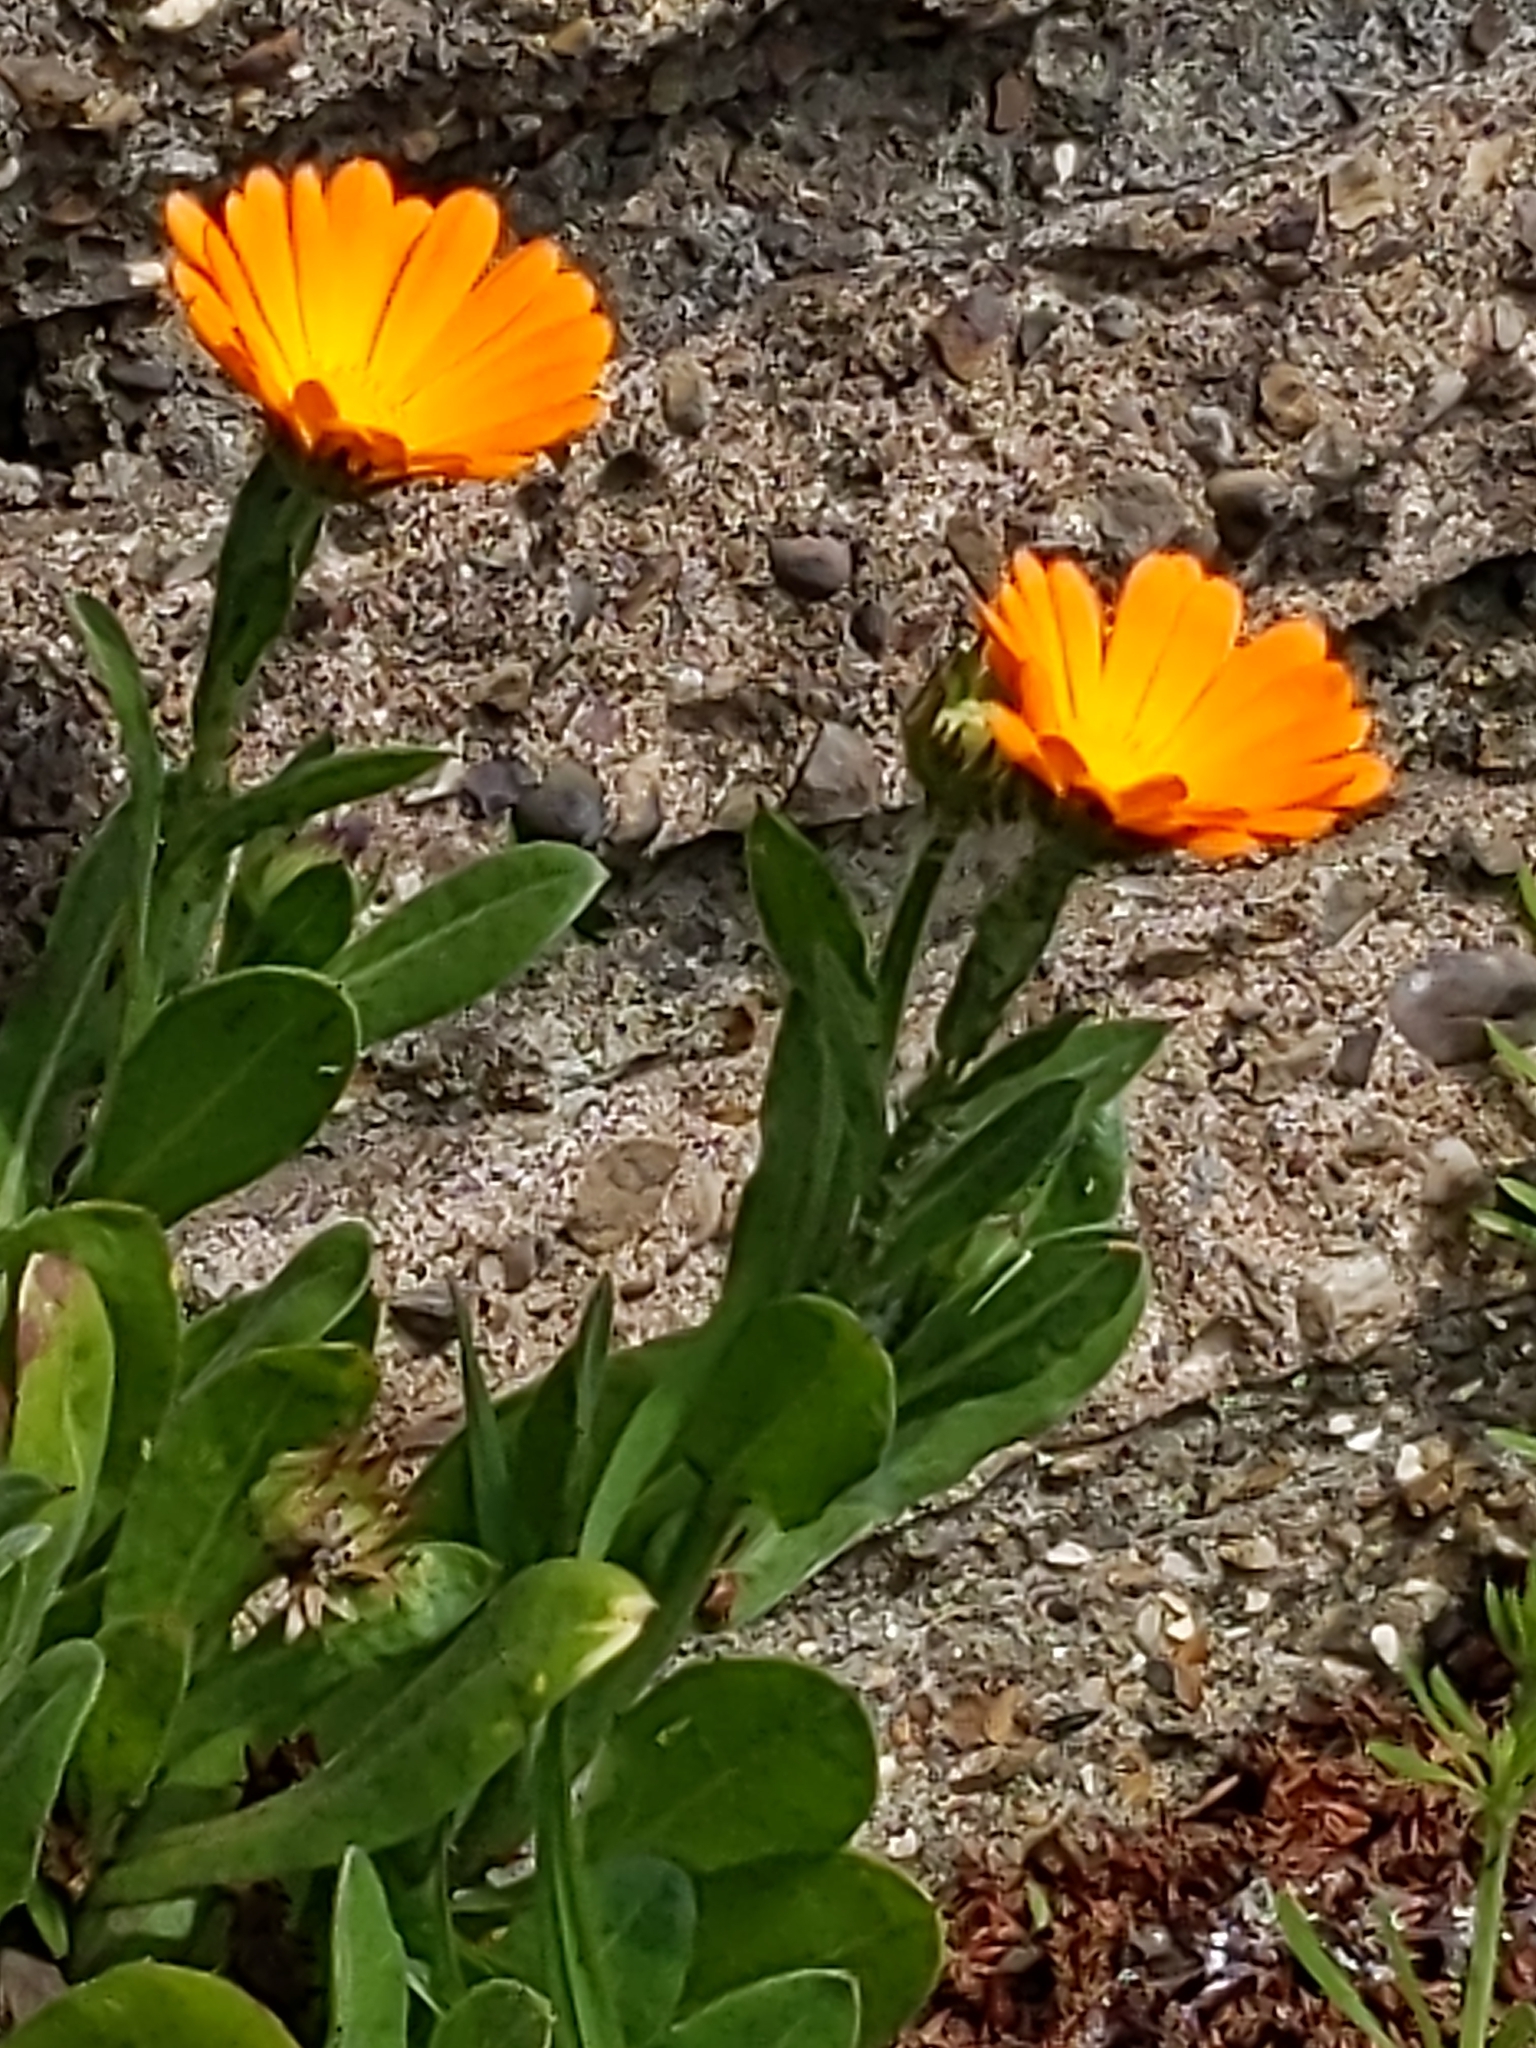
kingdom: Plantae
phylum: Tracheophyta
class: Magnoliopsida
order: Asterales
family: Asteraceae
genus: Calendula
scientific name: Calendula arvensis
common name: Field marigold
